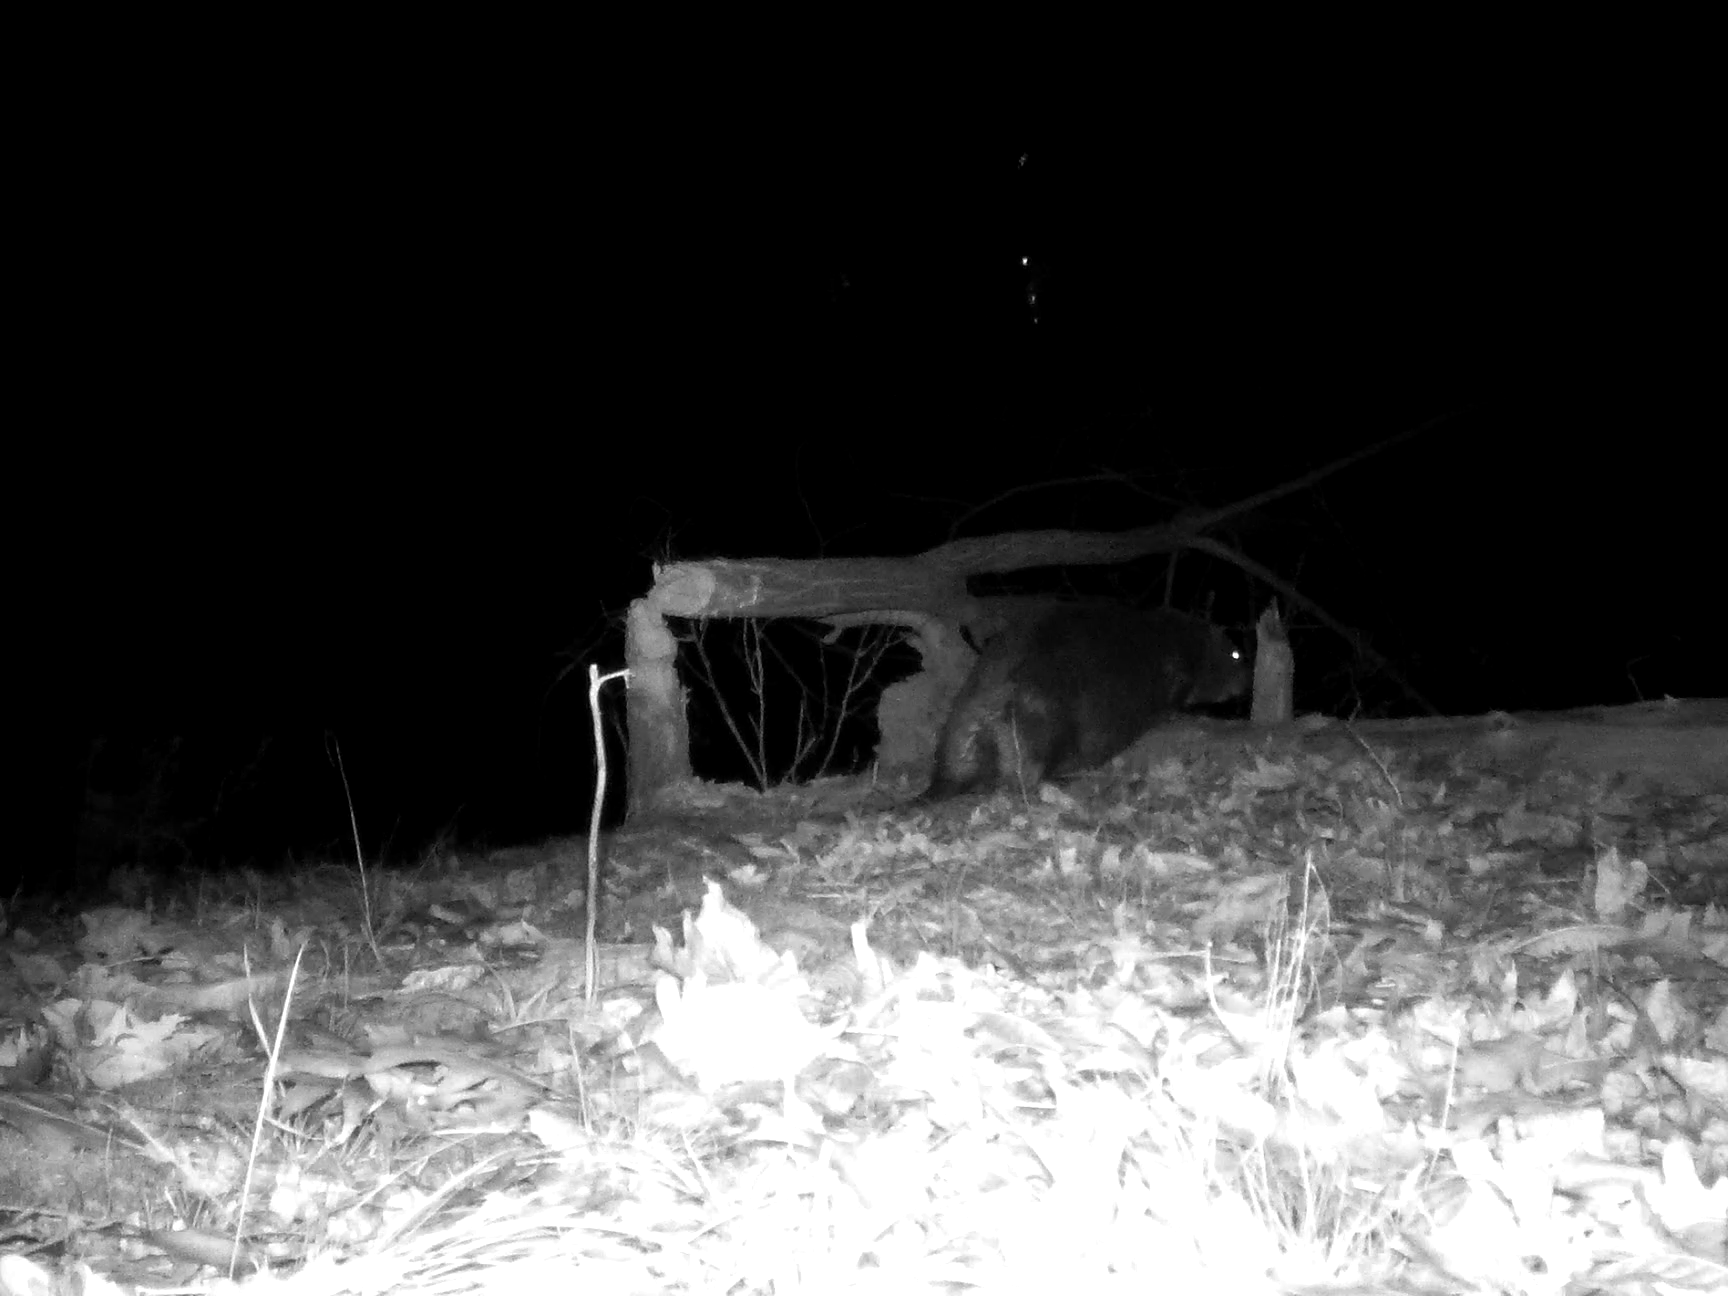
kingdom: Animalia
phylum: Chordata
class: Mammalia
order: Rodentia
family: Castoridae
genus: Castor
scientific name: Castor canadensis
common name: American beaver
